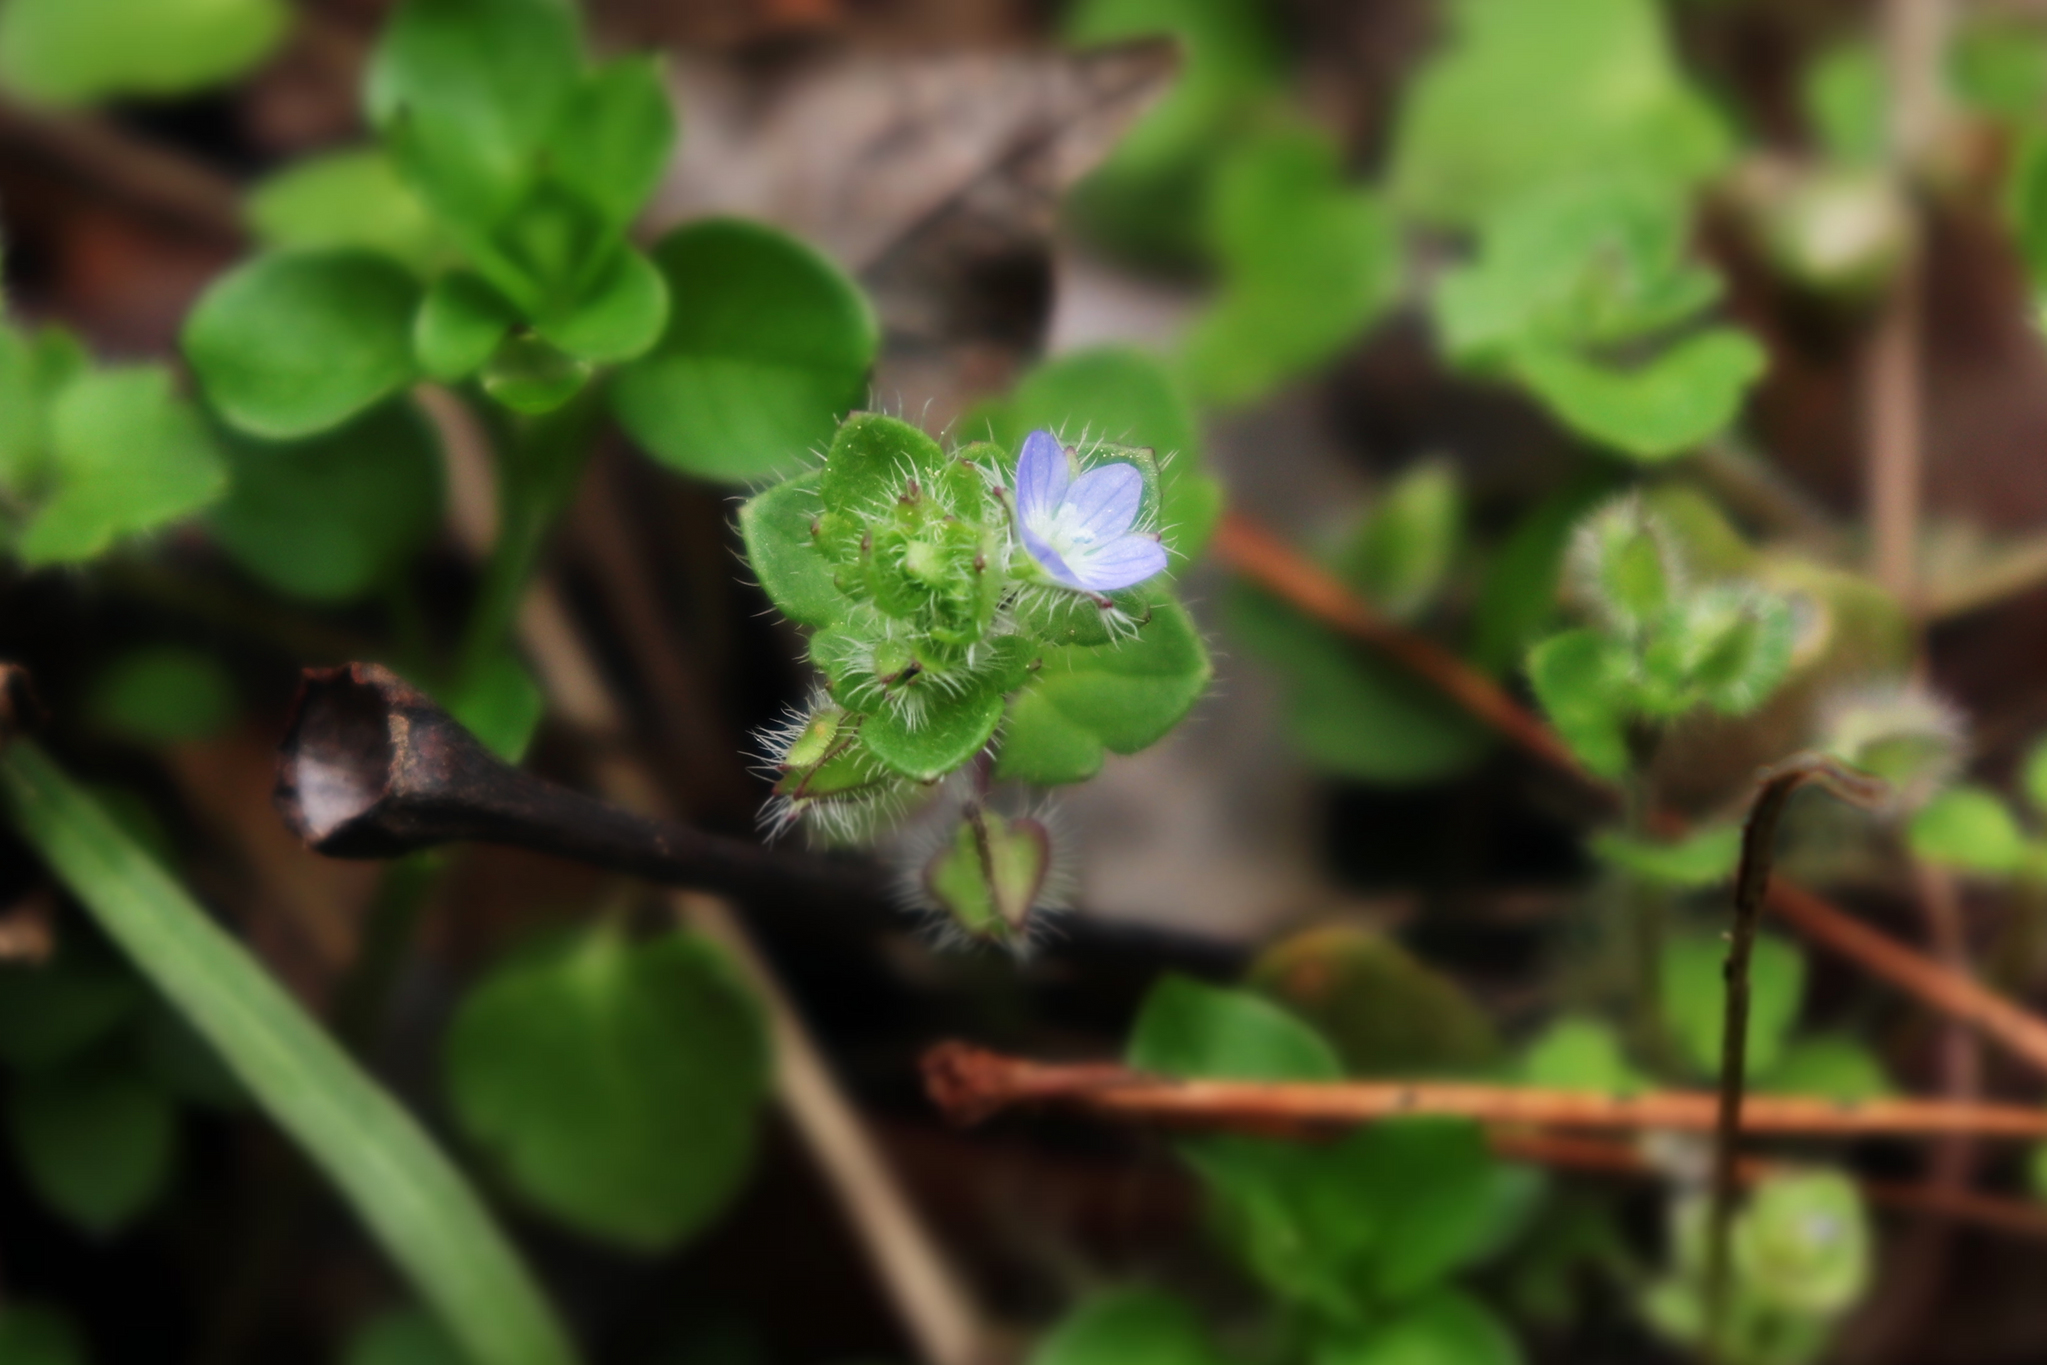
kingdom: Plantae
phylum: Tracheophyta
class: Magnoliopsida
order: Lamiales
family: Plantaginaceae
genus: Veronica
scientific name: Veronica hederifolia
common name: Ivy-leaved speedwell
